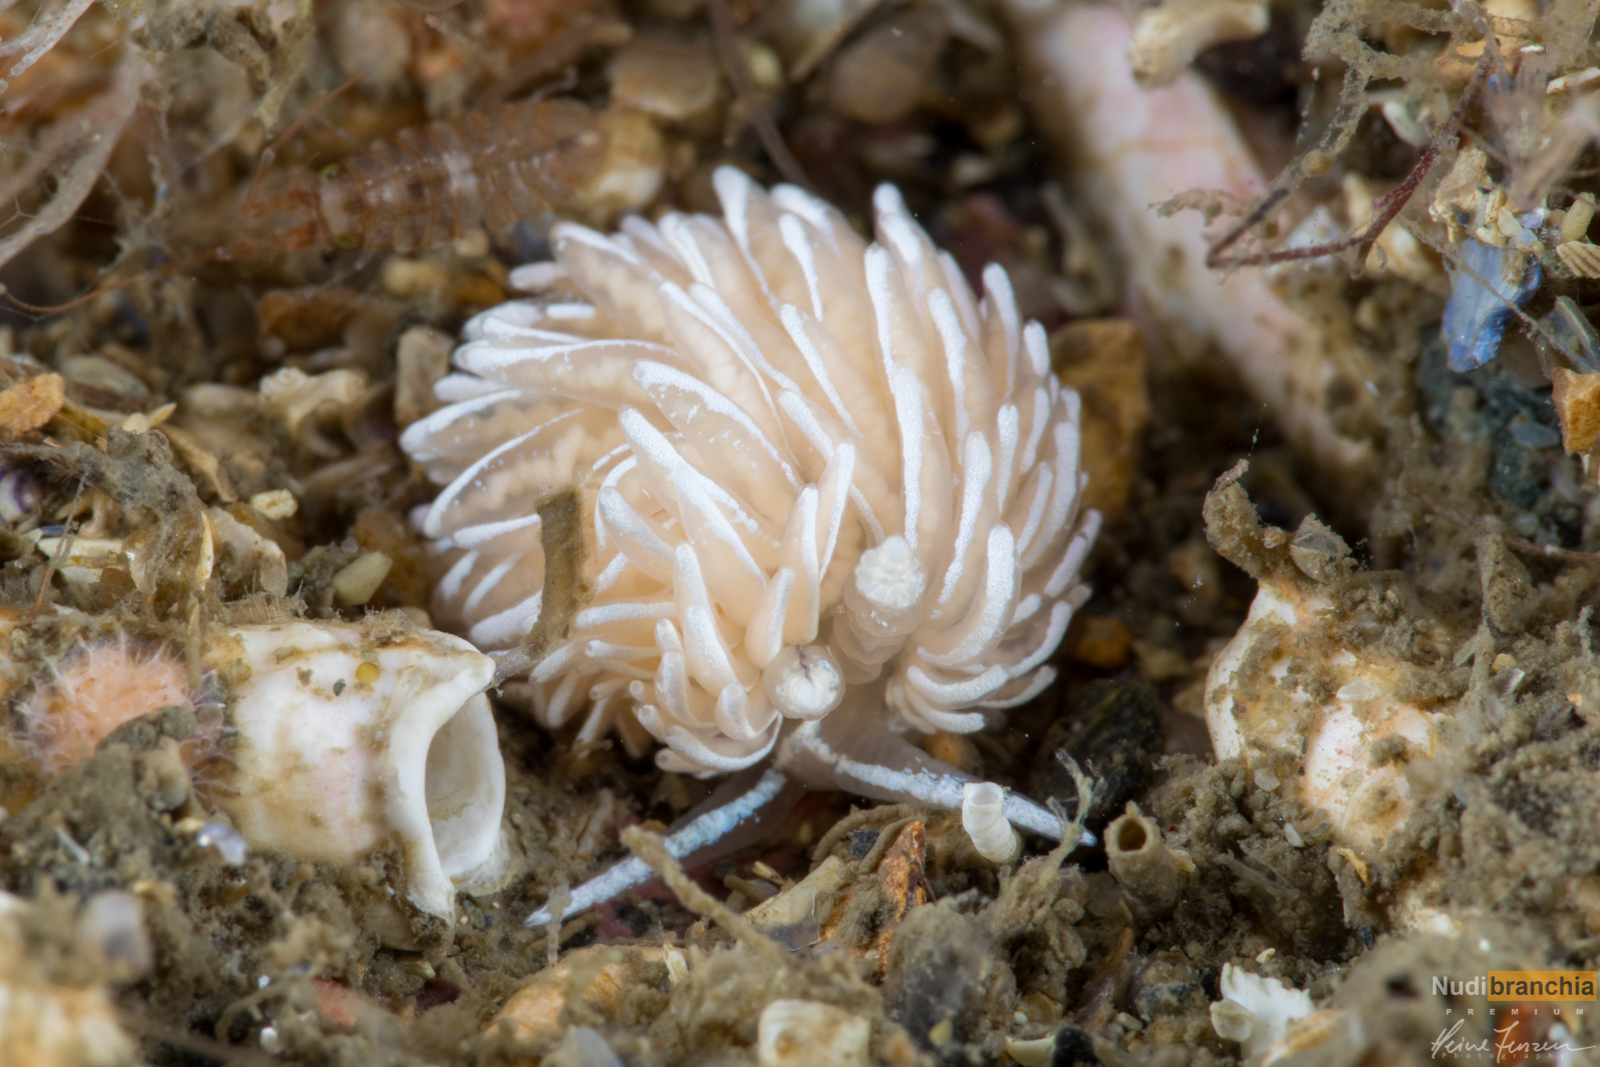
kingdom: Animalia
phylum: Mollusca
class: Gastropoda
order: Nudibranchia
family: Facelinidae
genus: Favorinus
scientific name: Favorinus blianus
